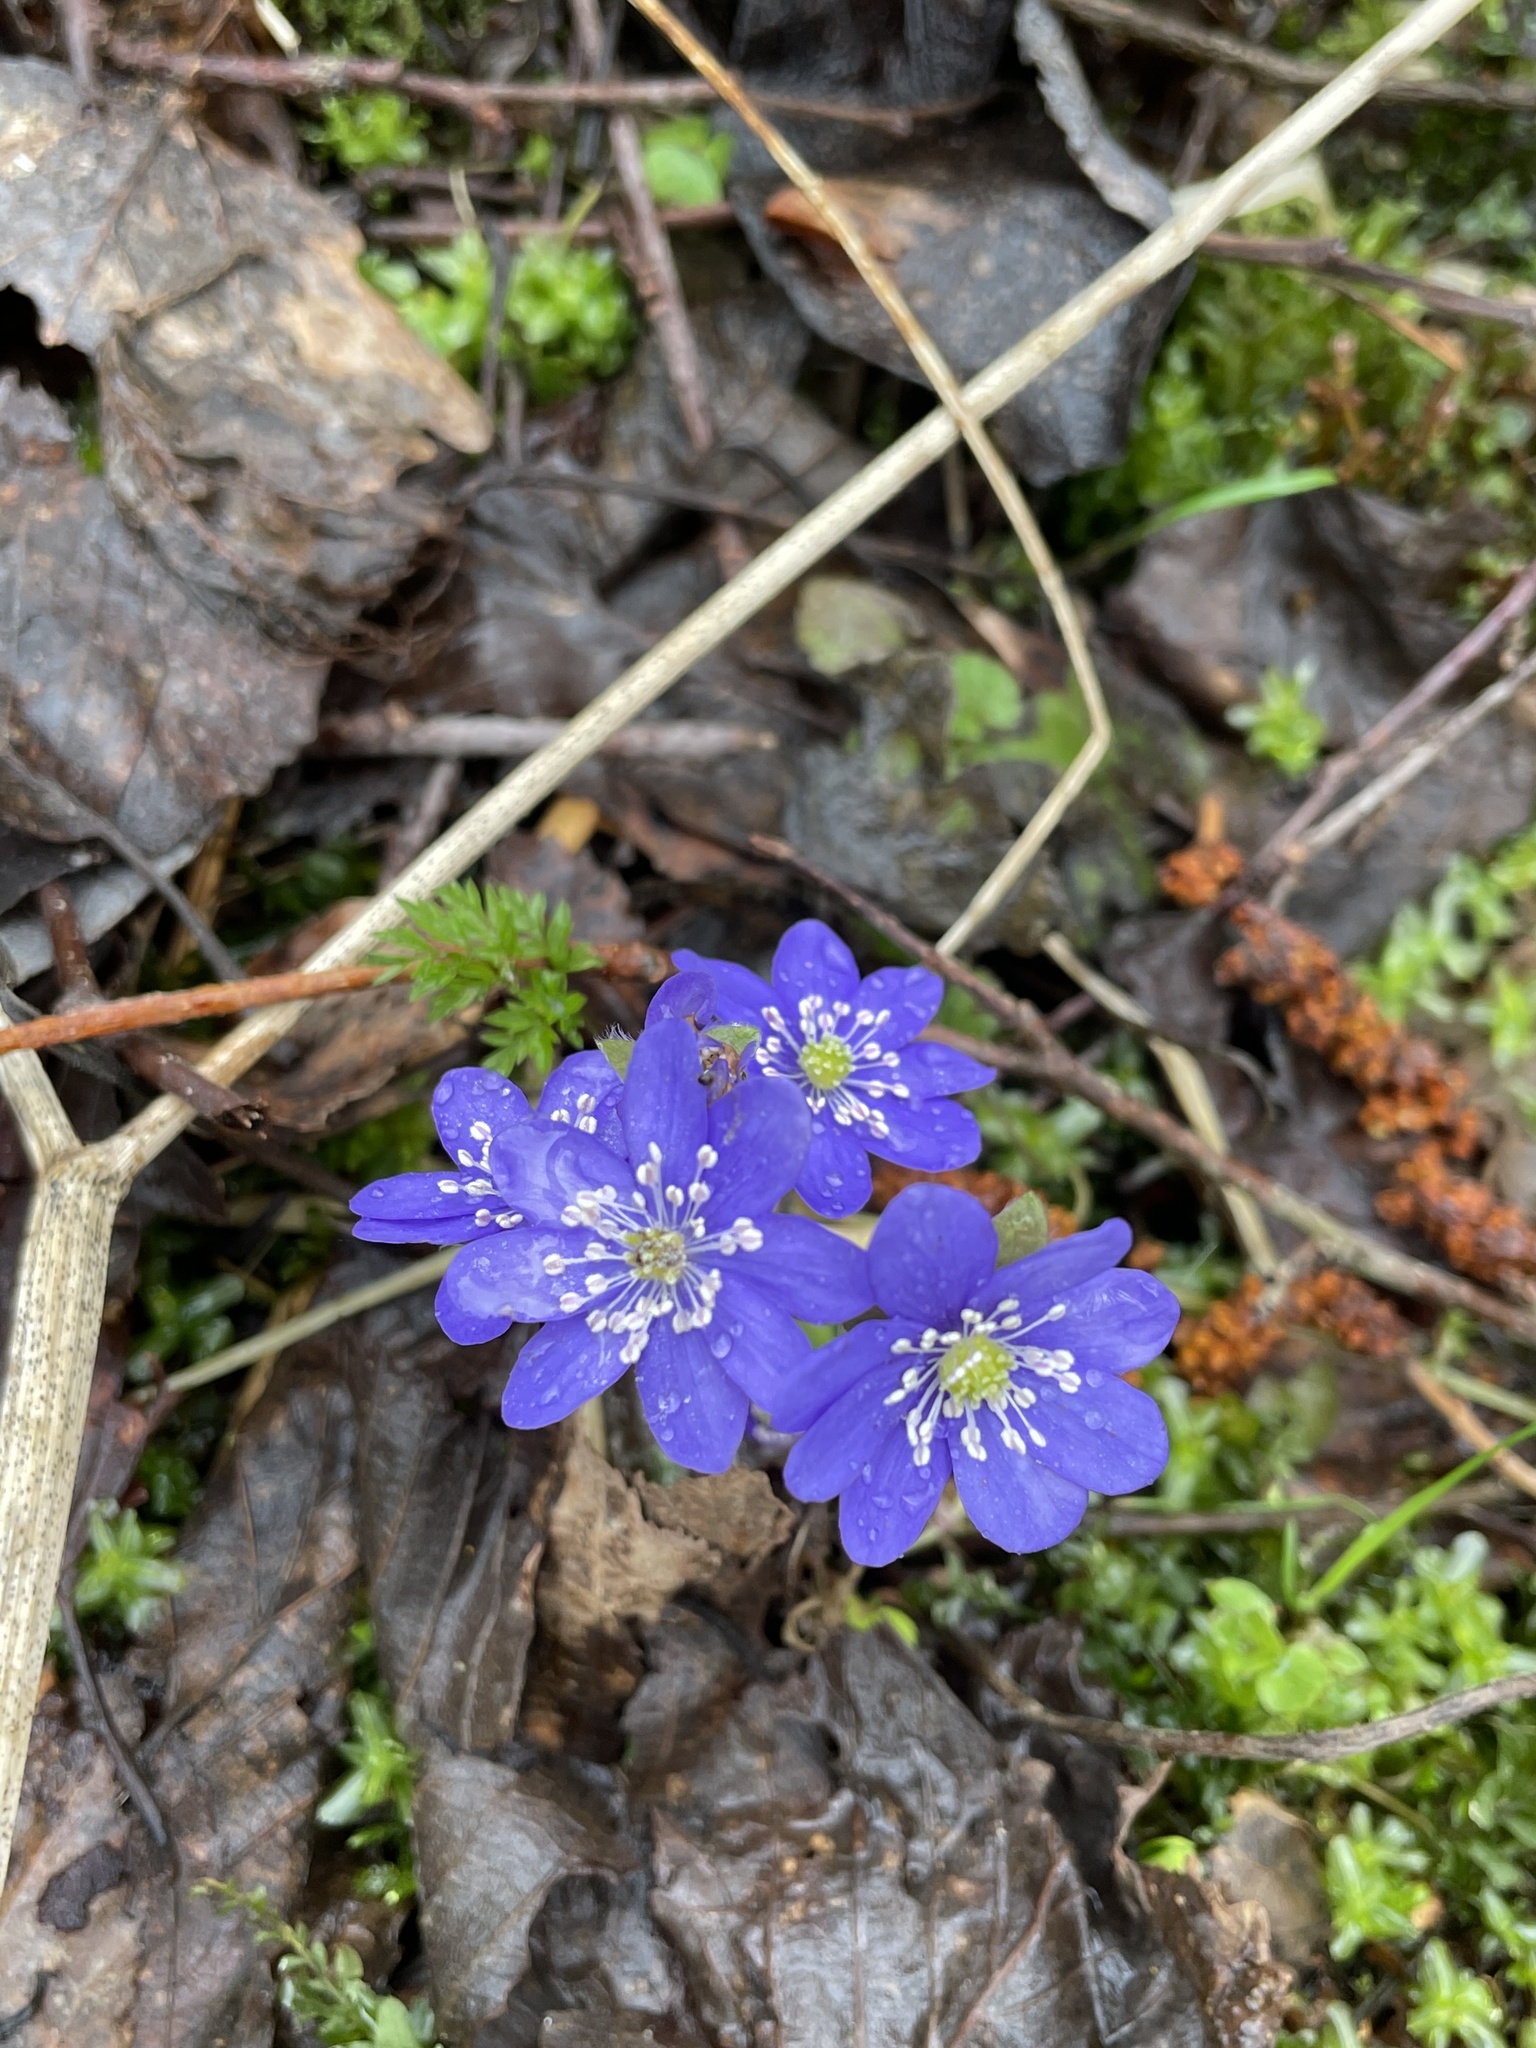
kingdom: Plantae
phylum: Tracheophyta
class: Magnoliopsida
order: Ranunculales
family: Ranunculaceae
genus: Hepatica
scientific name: Hepatica nobilis
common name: Liverleaf
